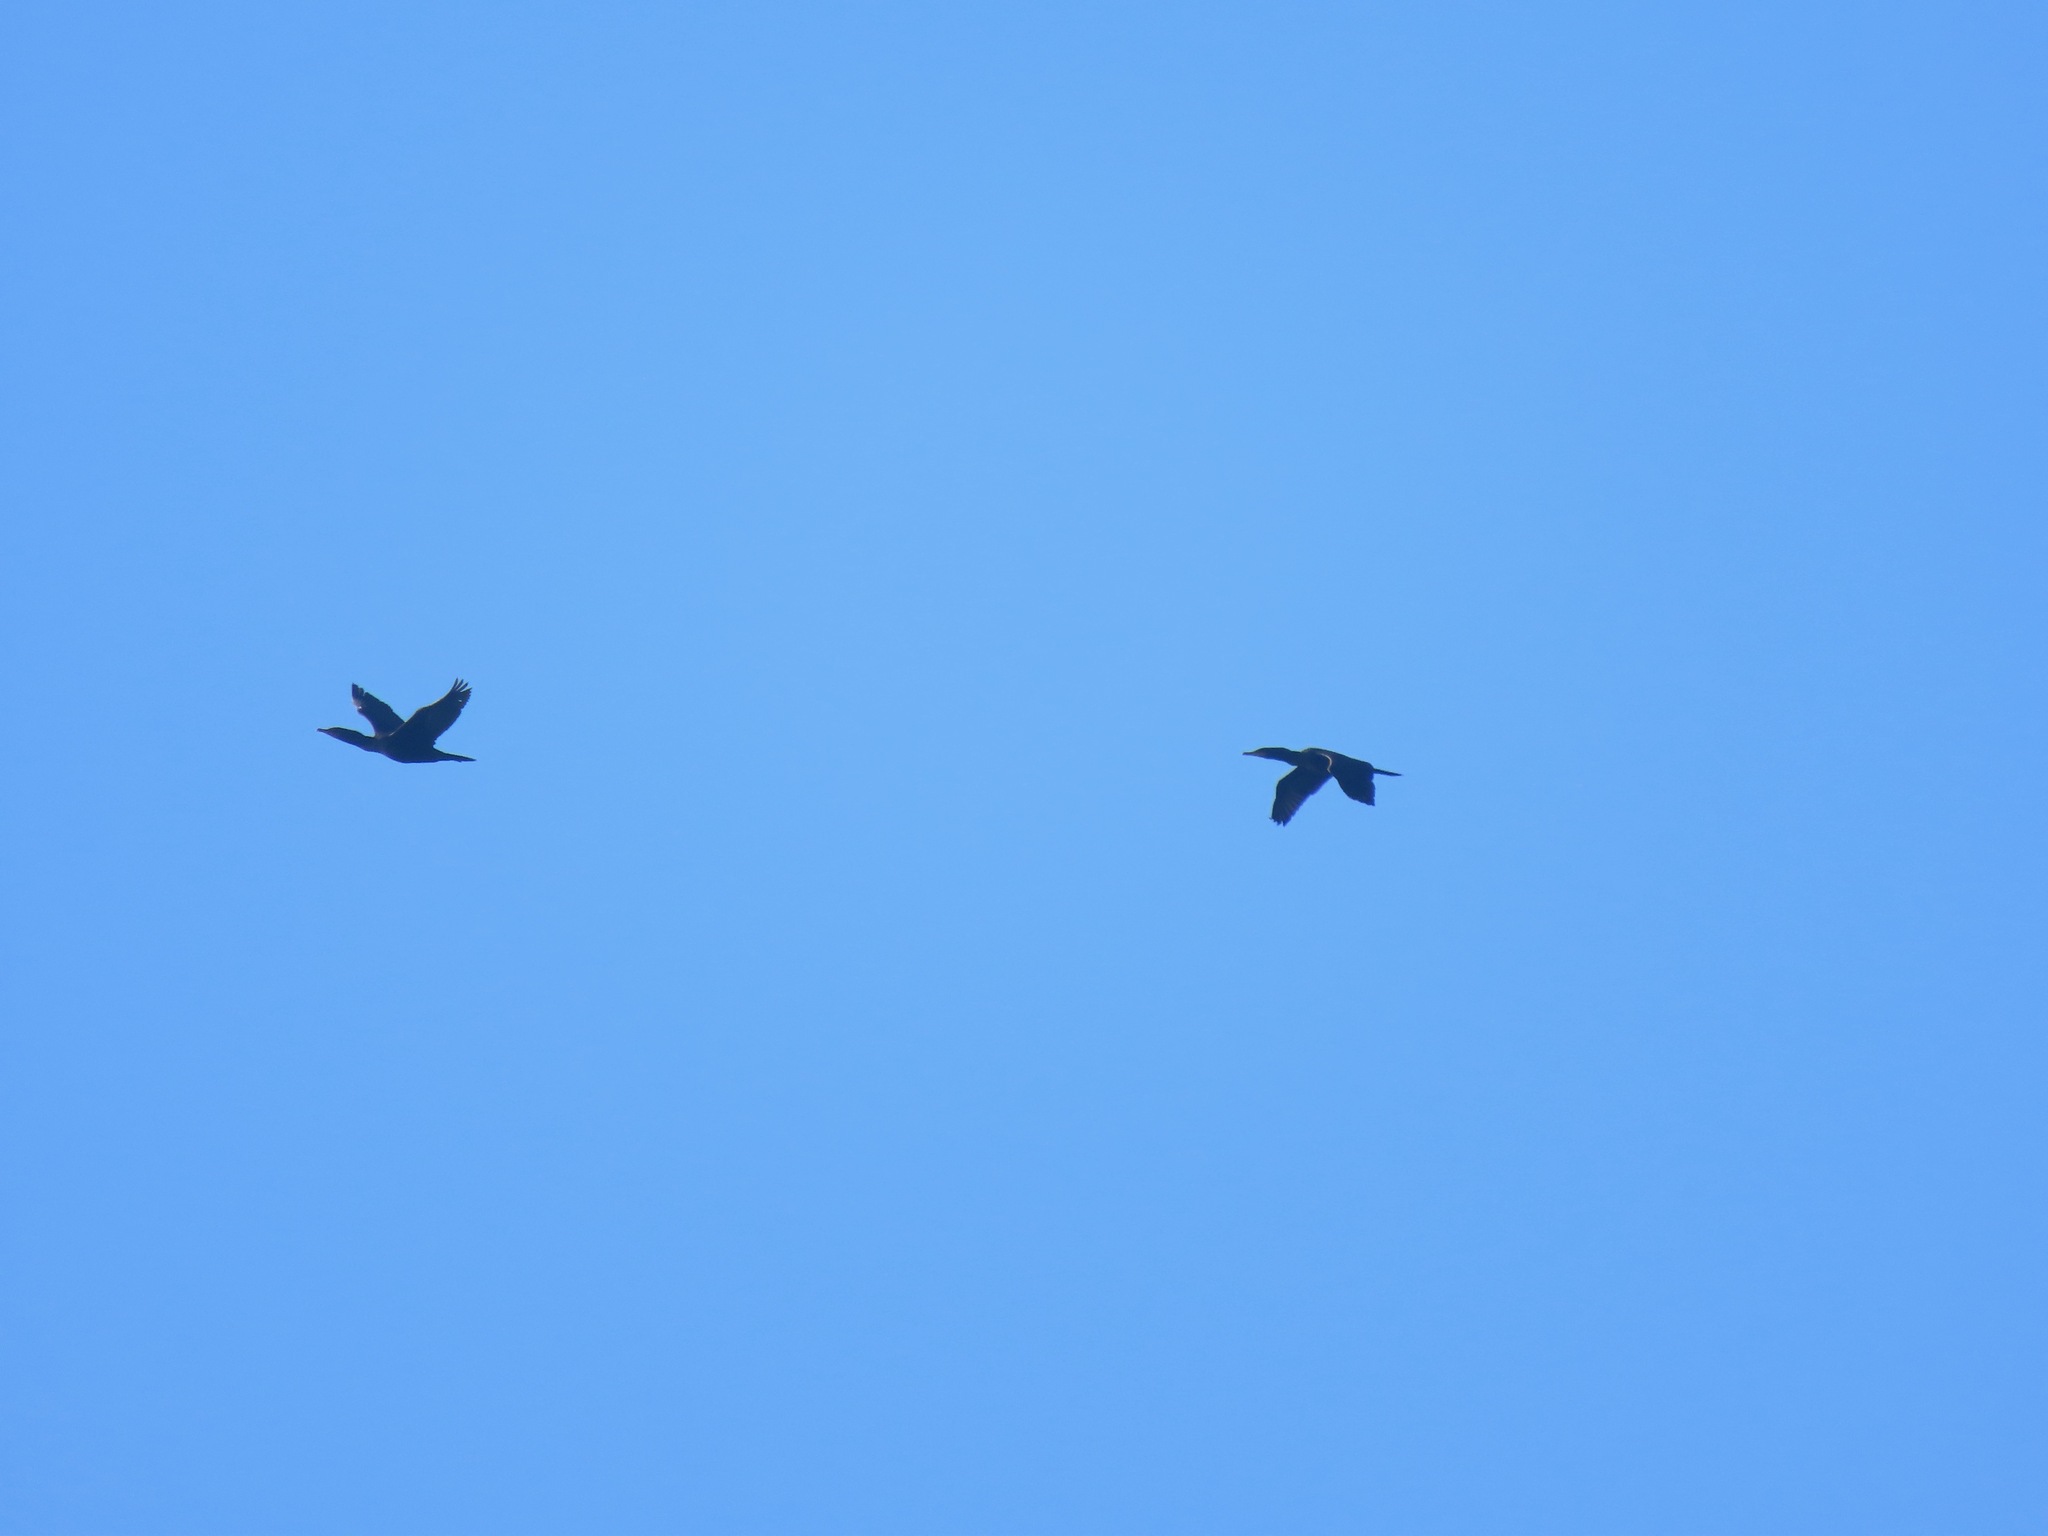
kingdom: Animalia
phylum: Chordata
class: Aves
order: Suliformes
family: Phalacrocoracidae
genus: Phalacrocorax
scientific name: Phalacrocorax auritus
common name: Double-crested cormorant
